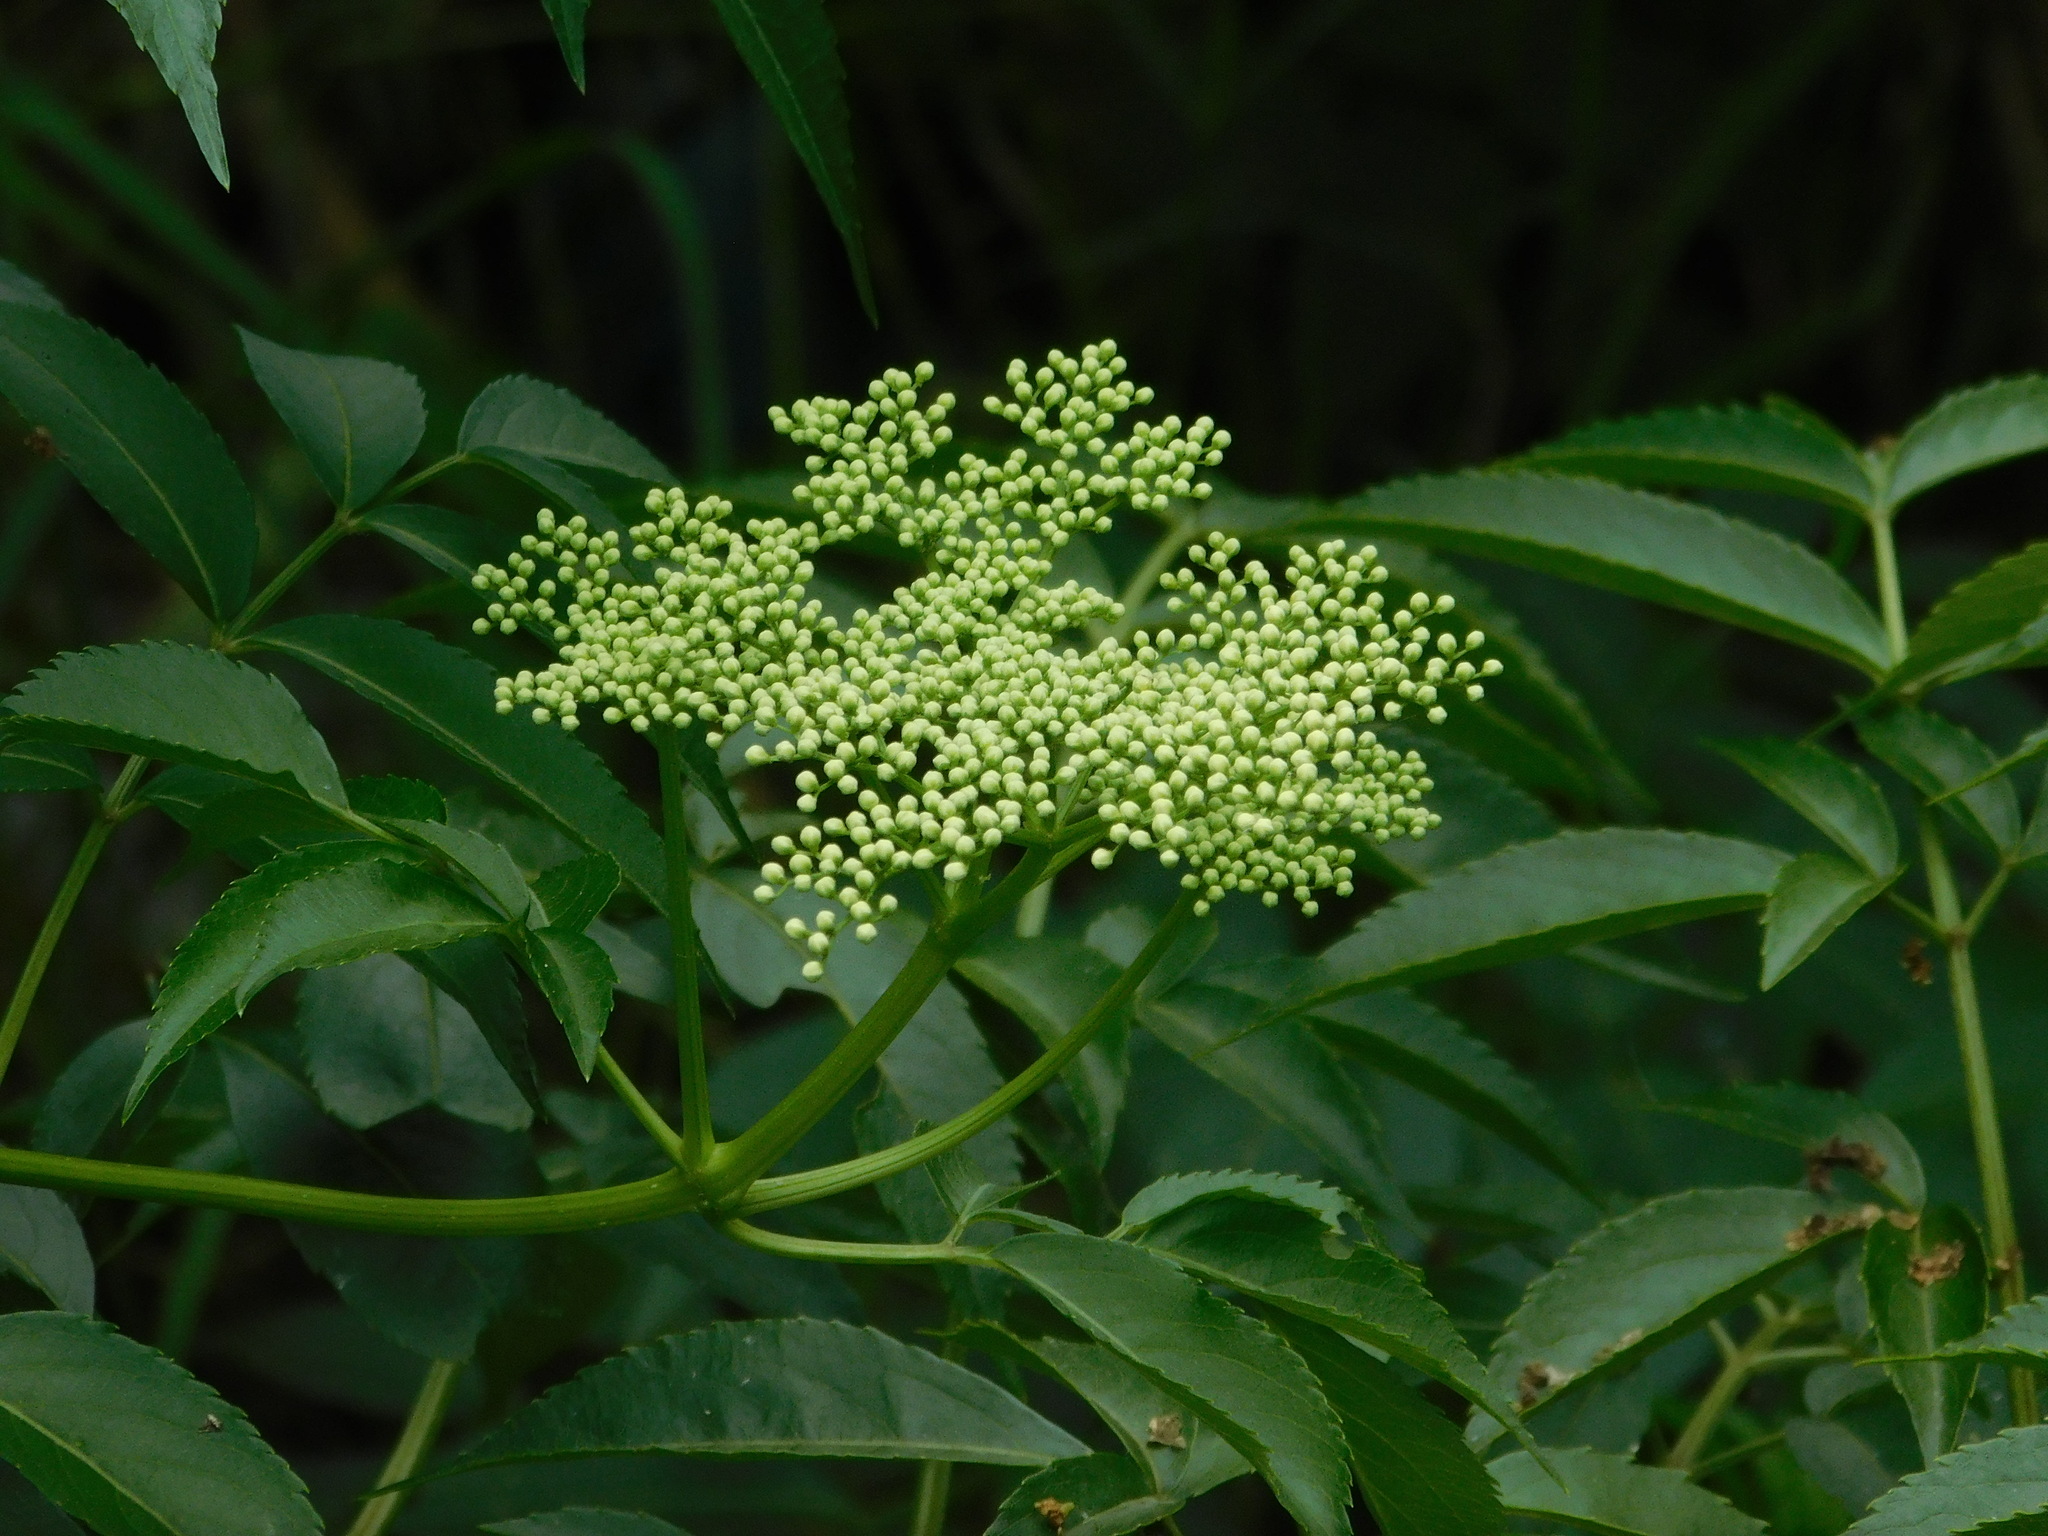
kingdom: Plantae
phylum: Tracheophyta
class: Magnoliopsida
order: Dipsacales
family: Viburnaceae
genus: Sambucus
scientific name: Sambucus javanica
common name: Chinese elder
